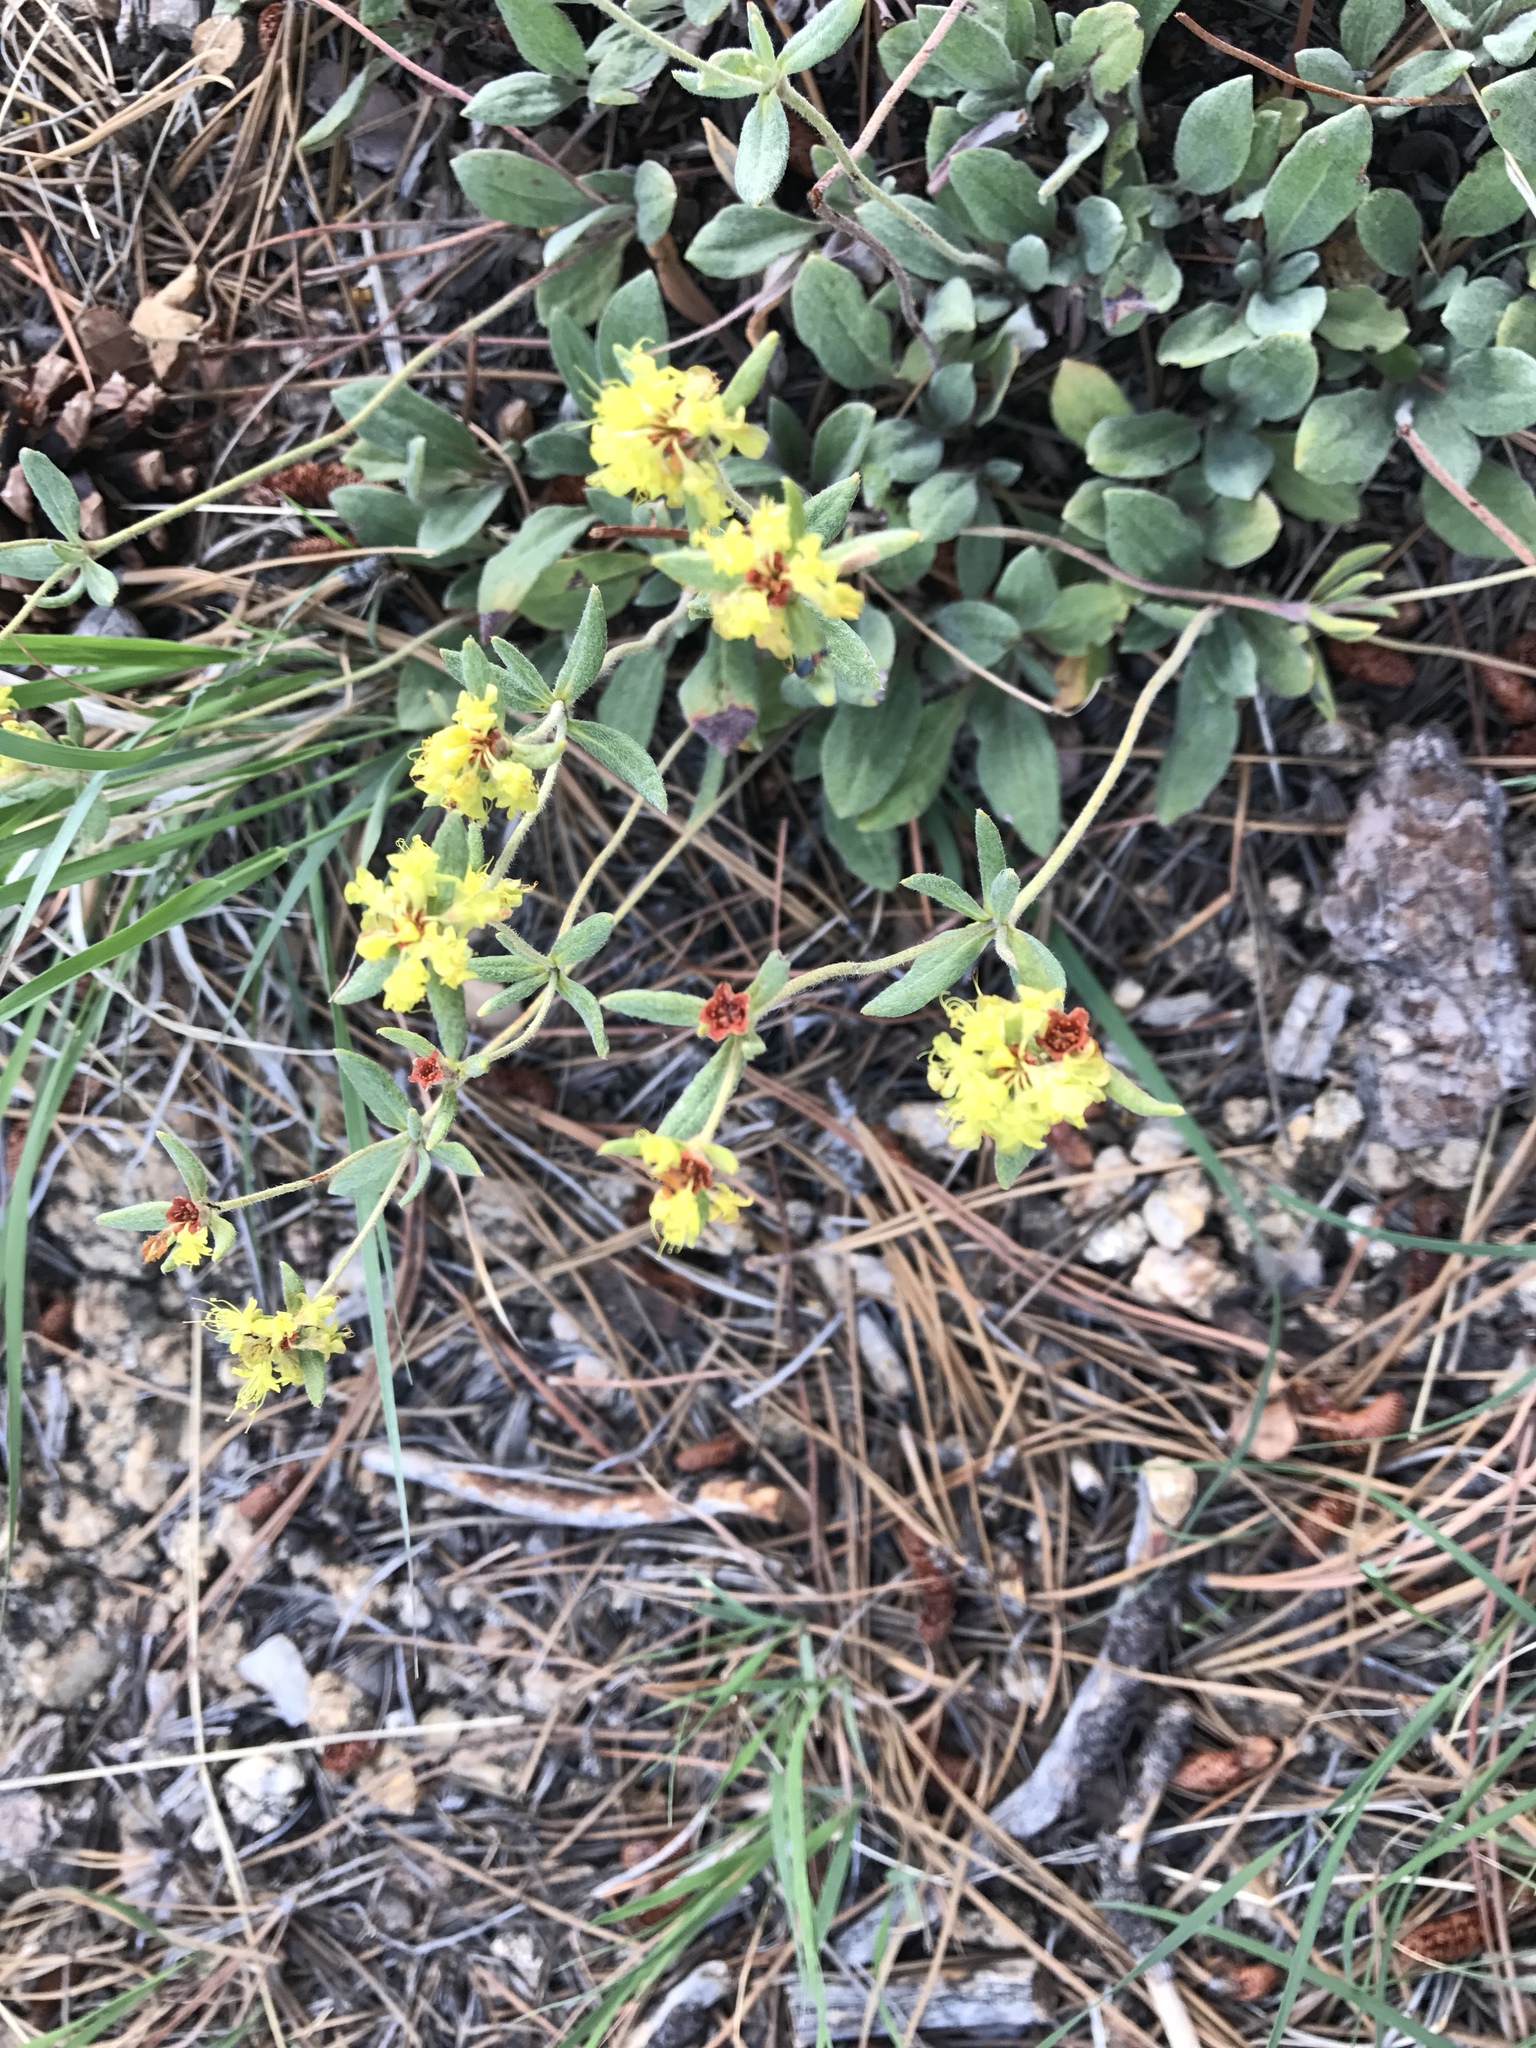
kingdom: Plantae
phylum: Tracheophyta
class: Magnoliopsida
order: Caryophyllales
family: Polygonaceae
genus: Eriogonum
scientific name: Eriogonum umbellatum
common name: Sulfur-buckwheat
